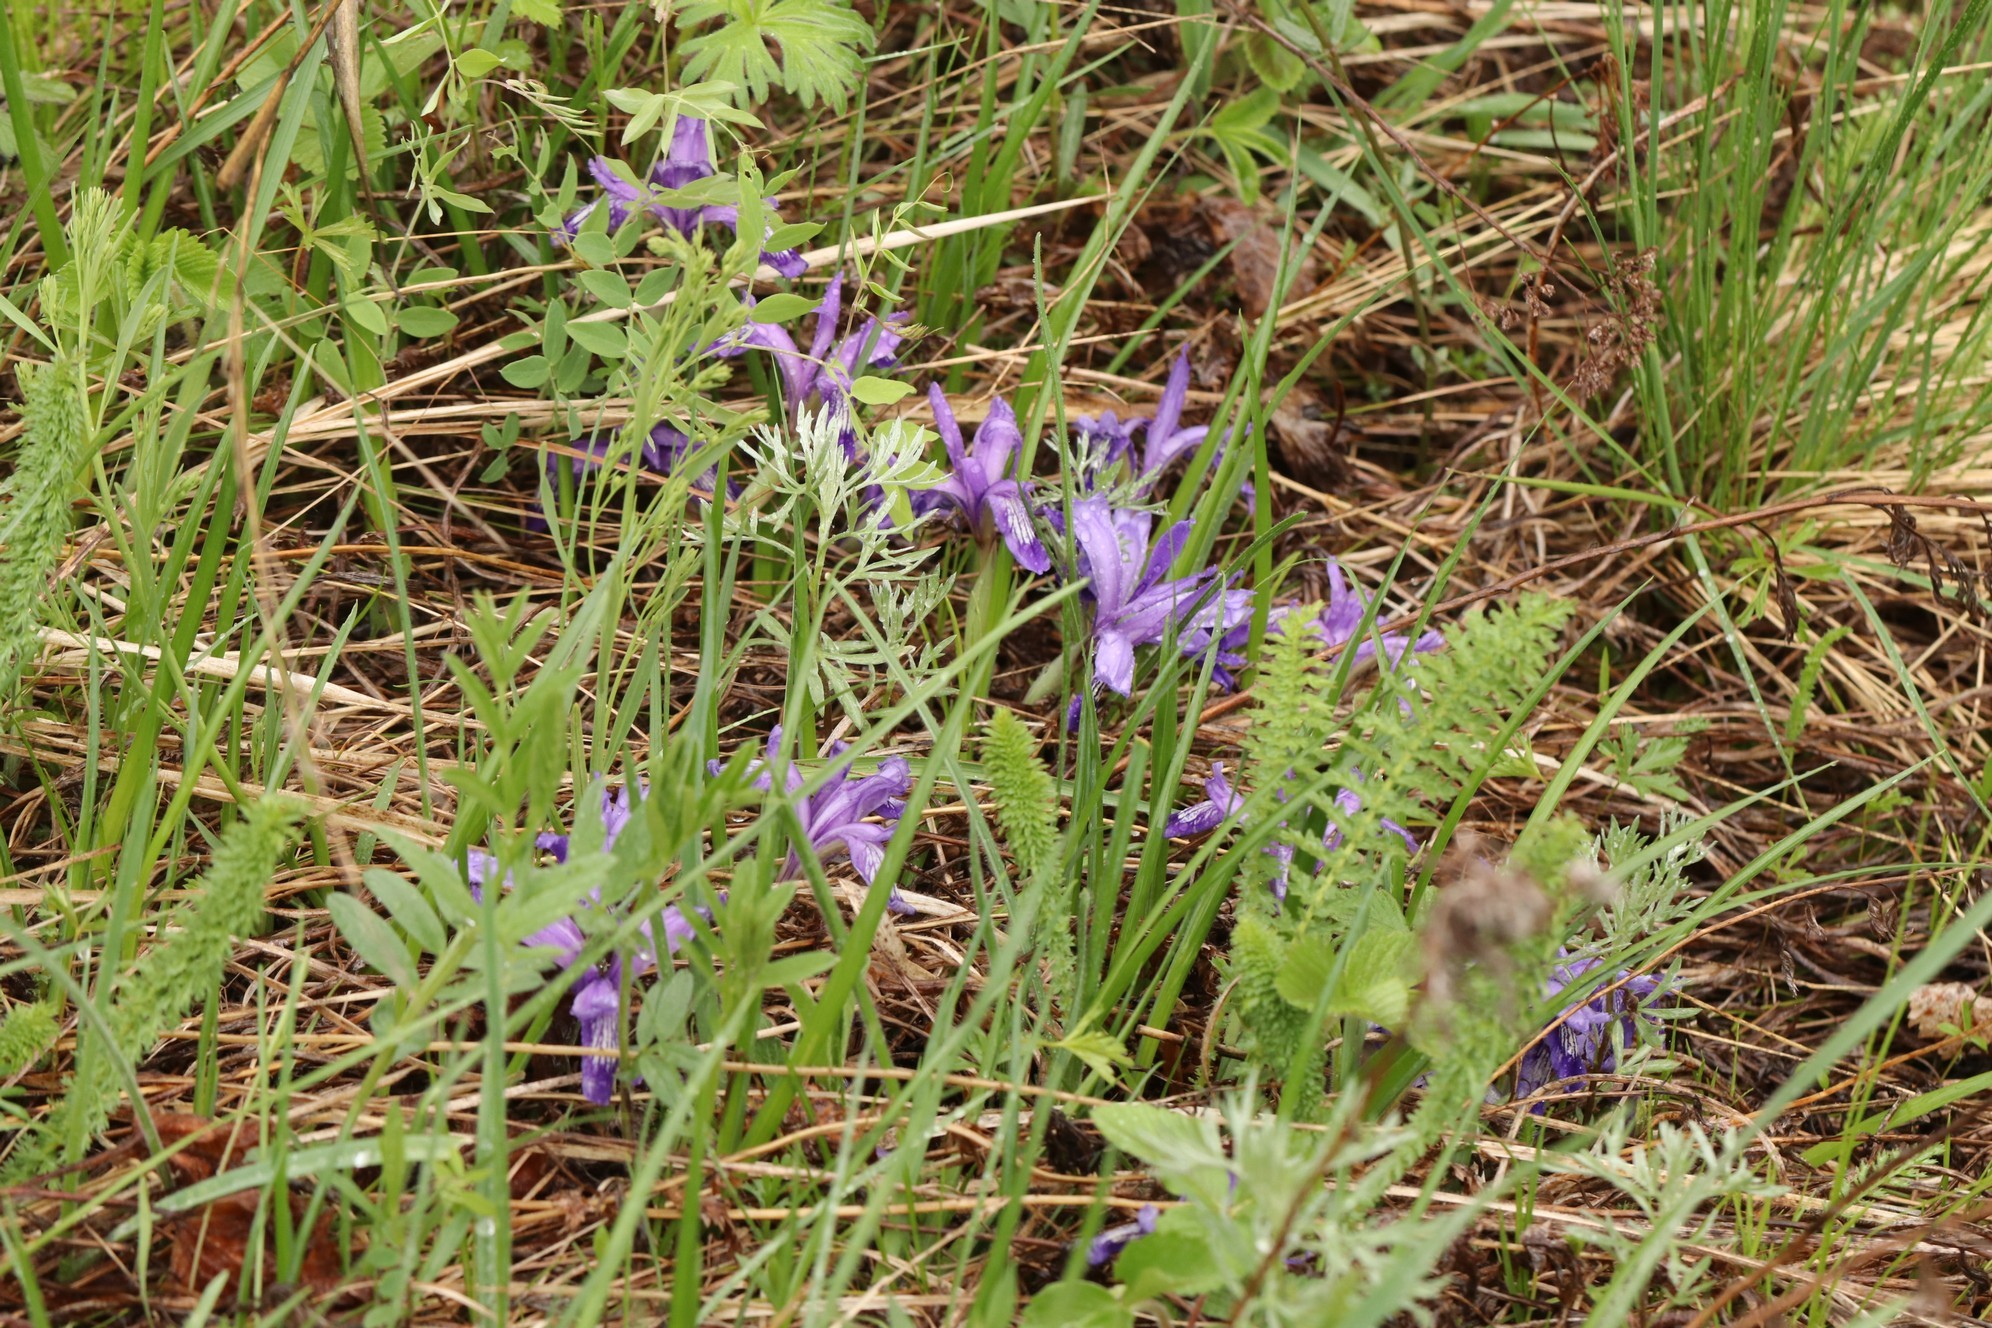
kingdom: Plantae
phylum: Tracheophyta
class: Liliopsida
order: Asparagales
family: Iridaceae
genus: Iris
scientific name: Iris ruthenica
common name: Purple-bract iris
